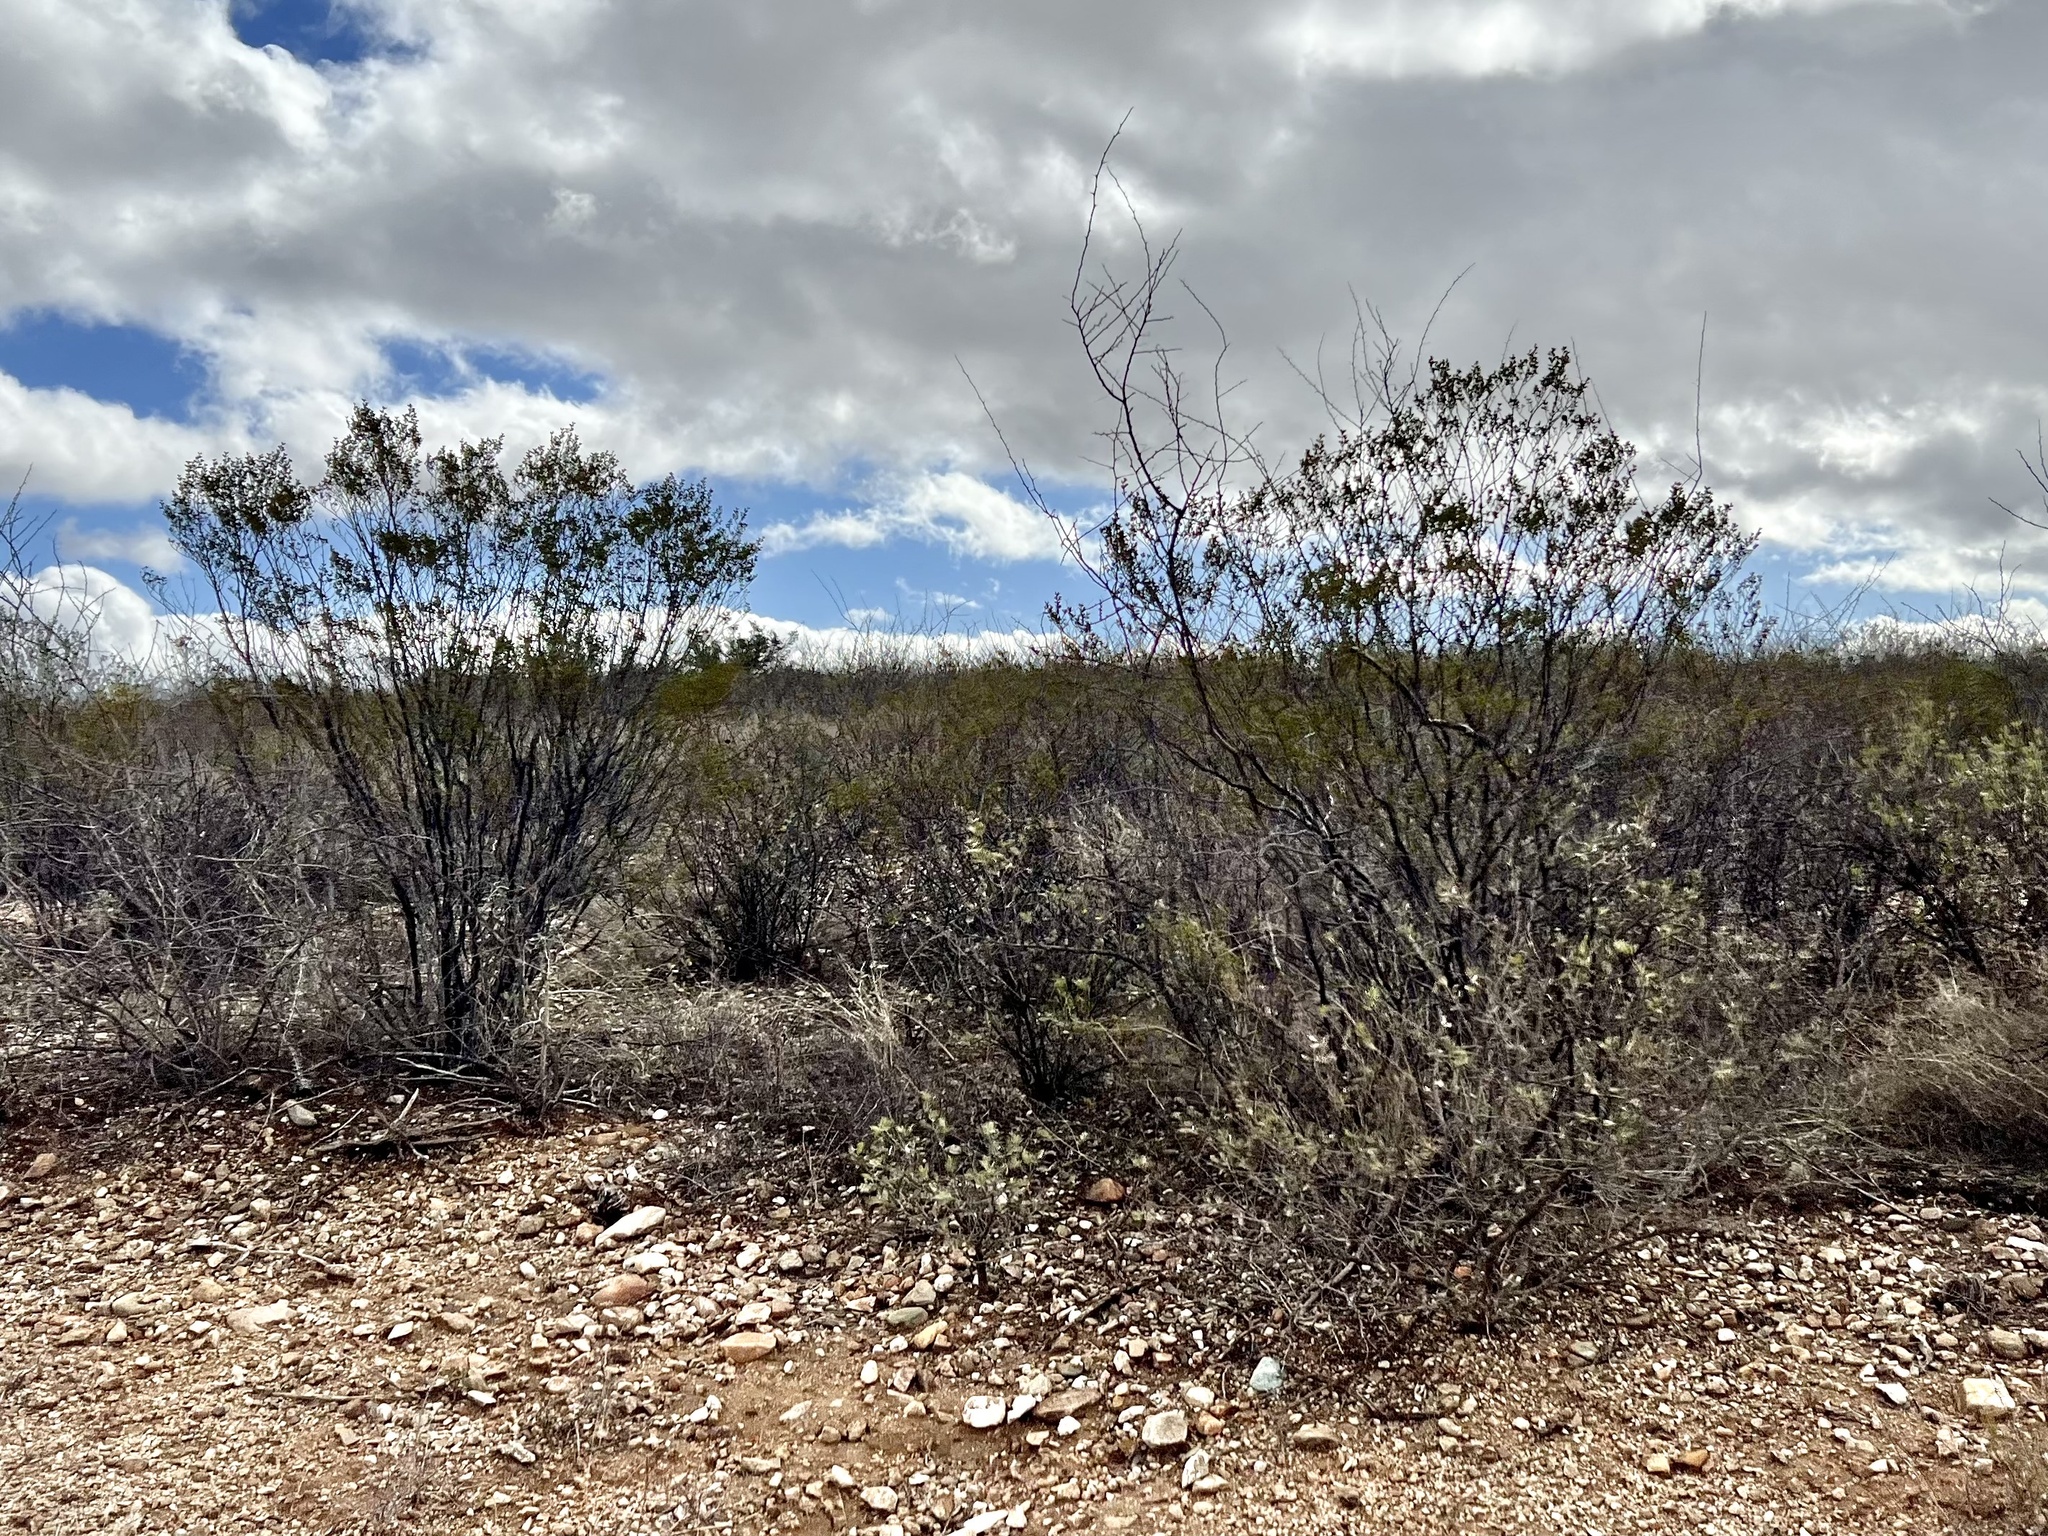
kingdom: Plantae
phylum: Tracheophyta
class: Magnoliopsida
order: Zygophyllales
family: Zygophyllaceae
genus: Larrea
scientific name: Larrea tridentata
